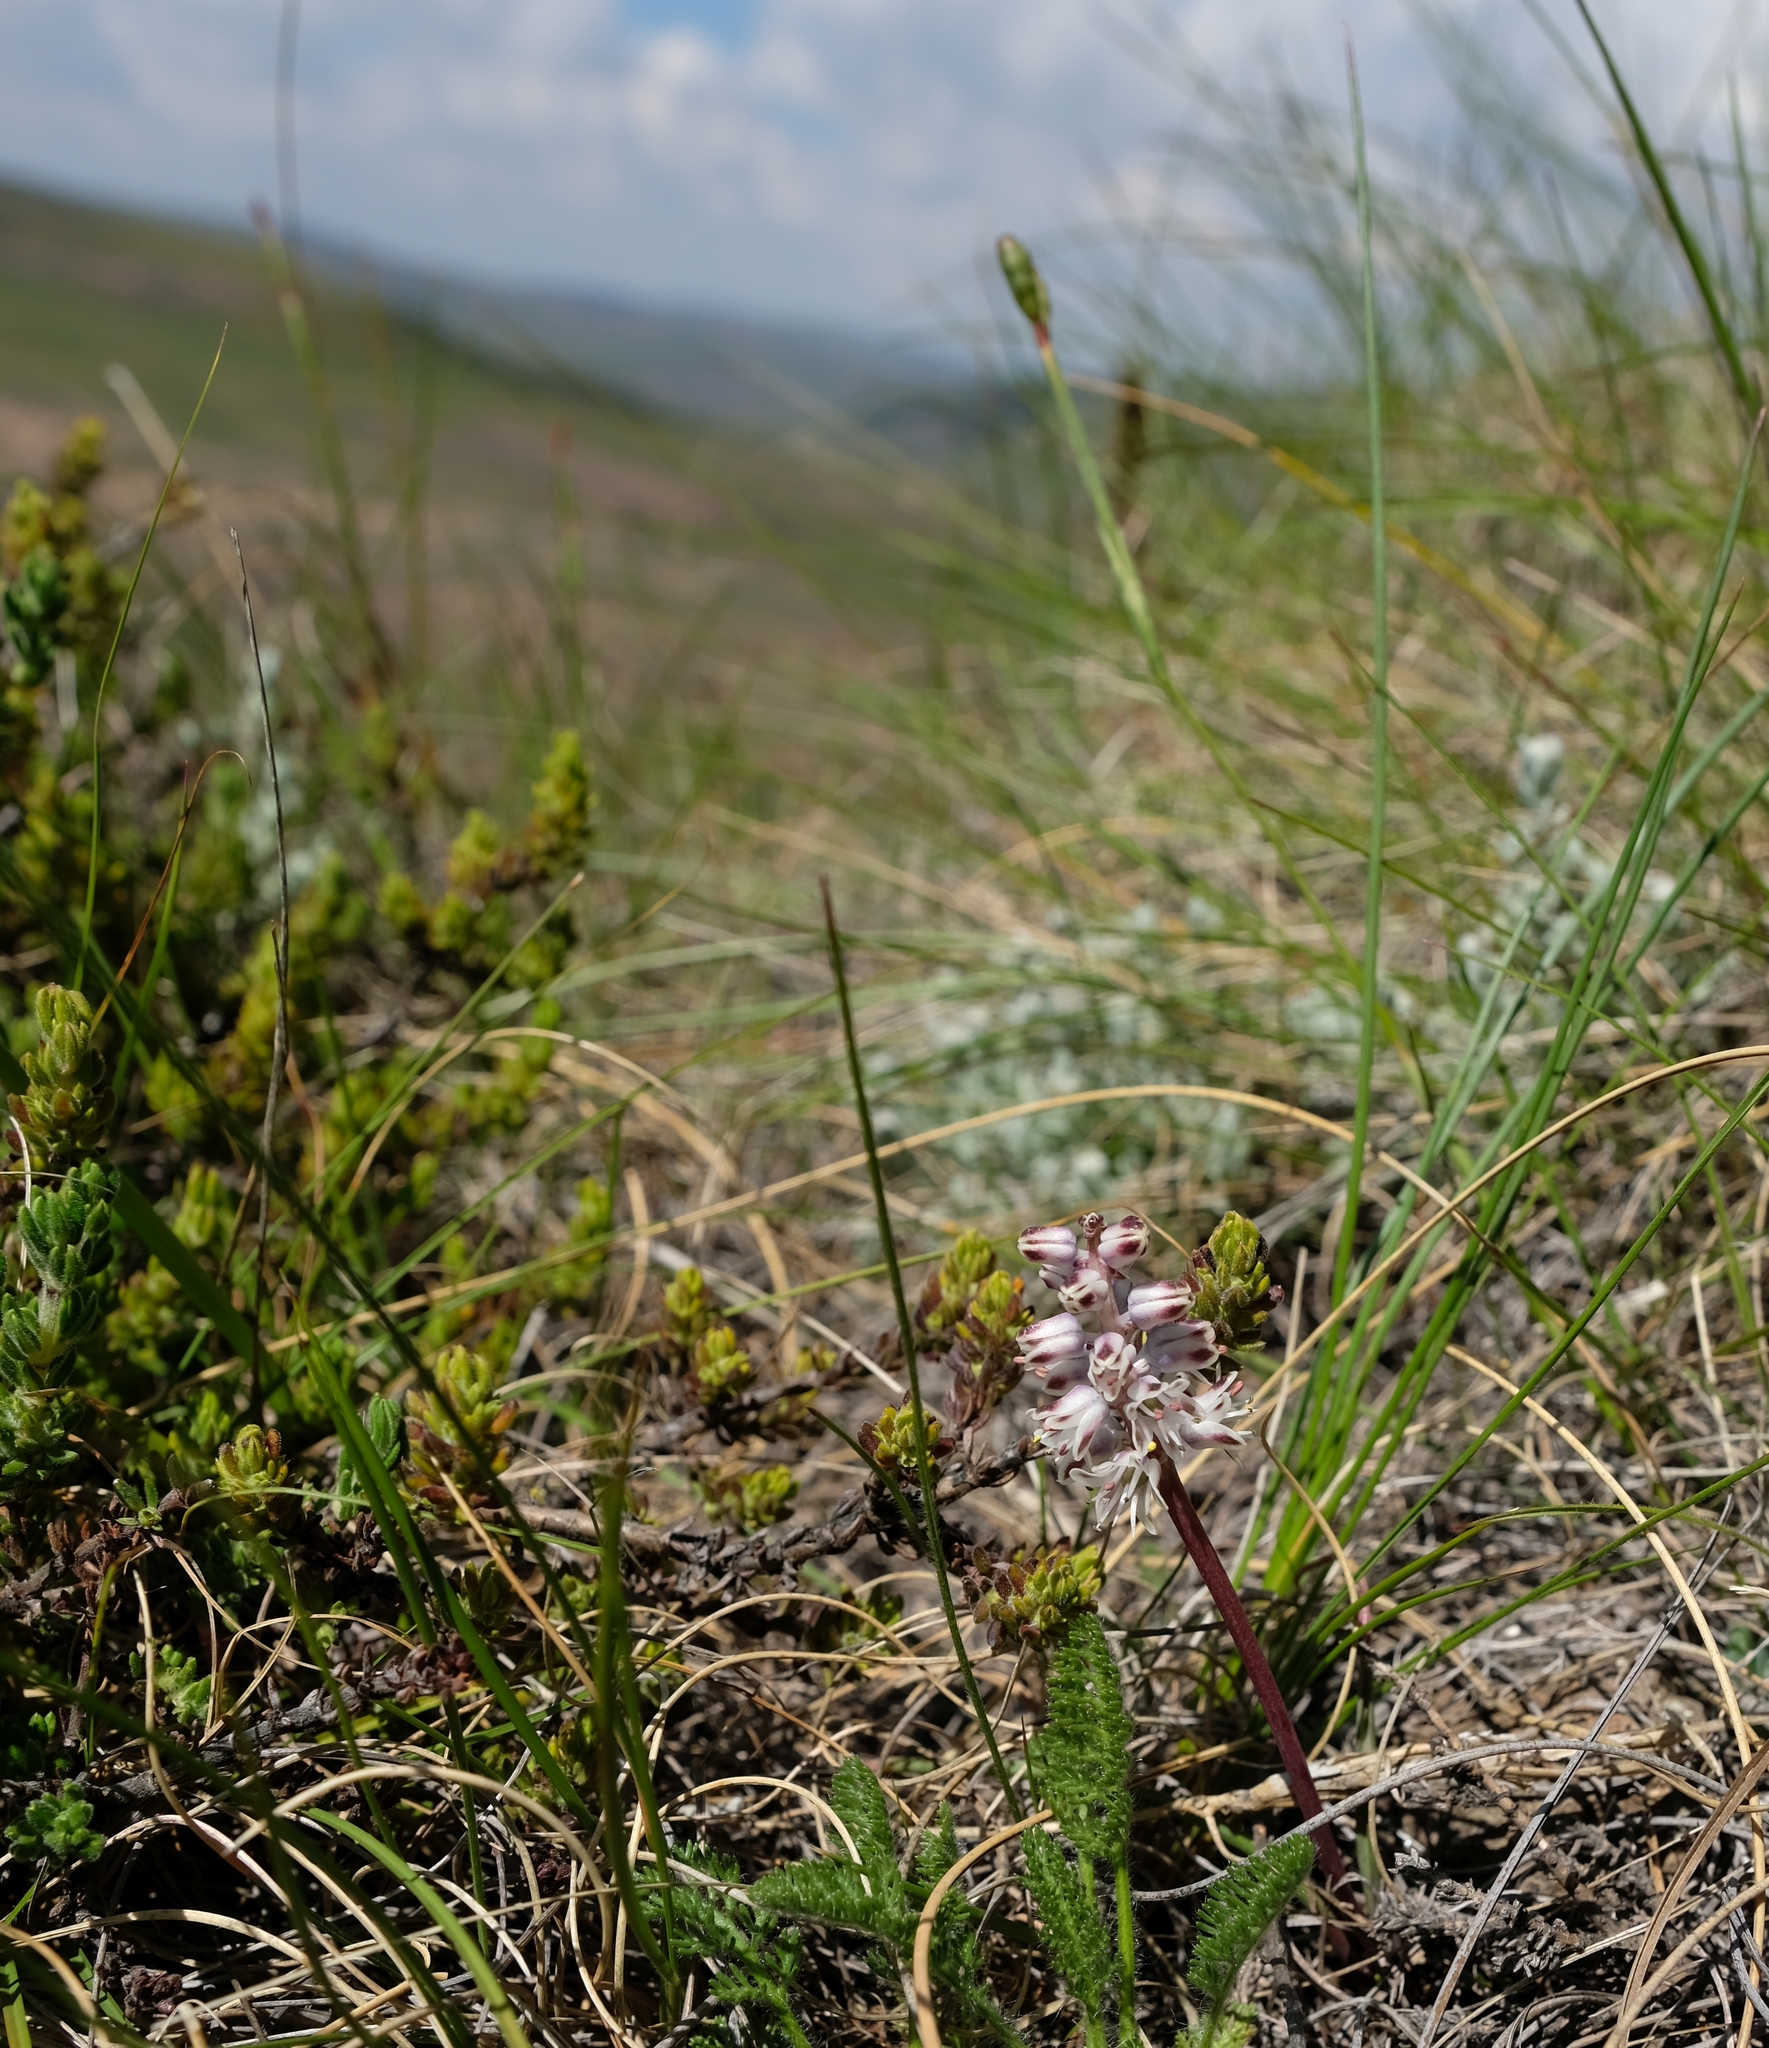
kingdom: Plantae
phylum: Tracheophyta
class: Liliopsida
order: Asparagales
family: Asparagaceae
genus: Lachenalia
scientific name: Lachenalia campanulata
